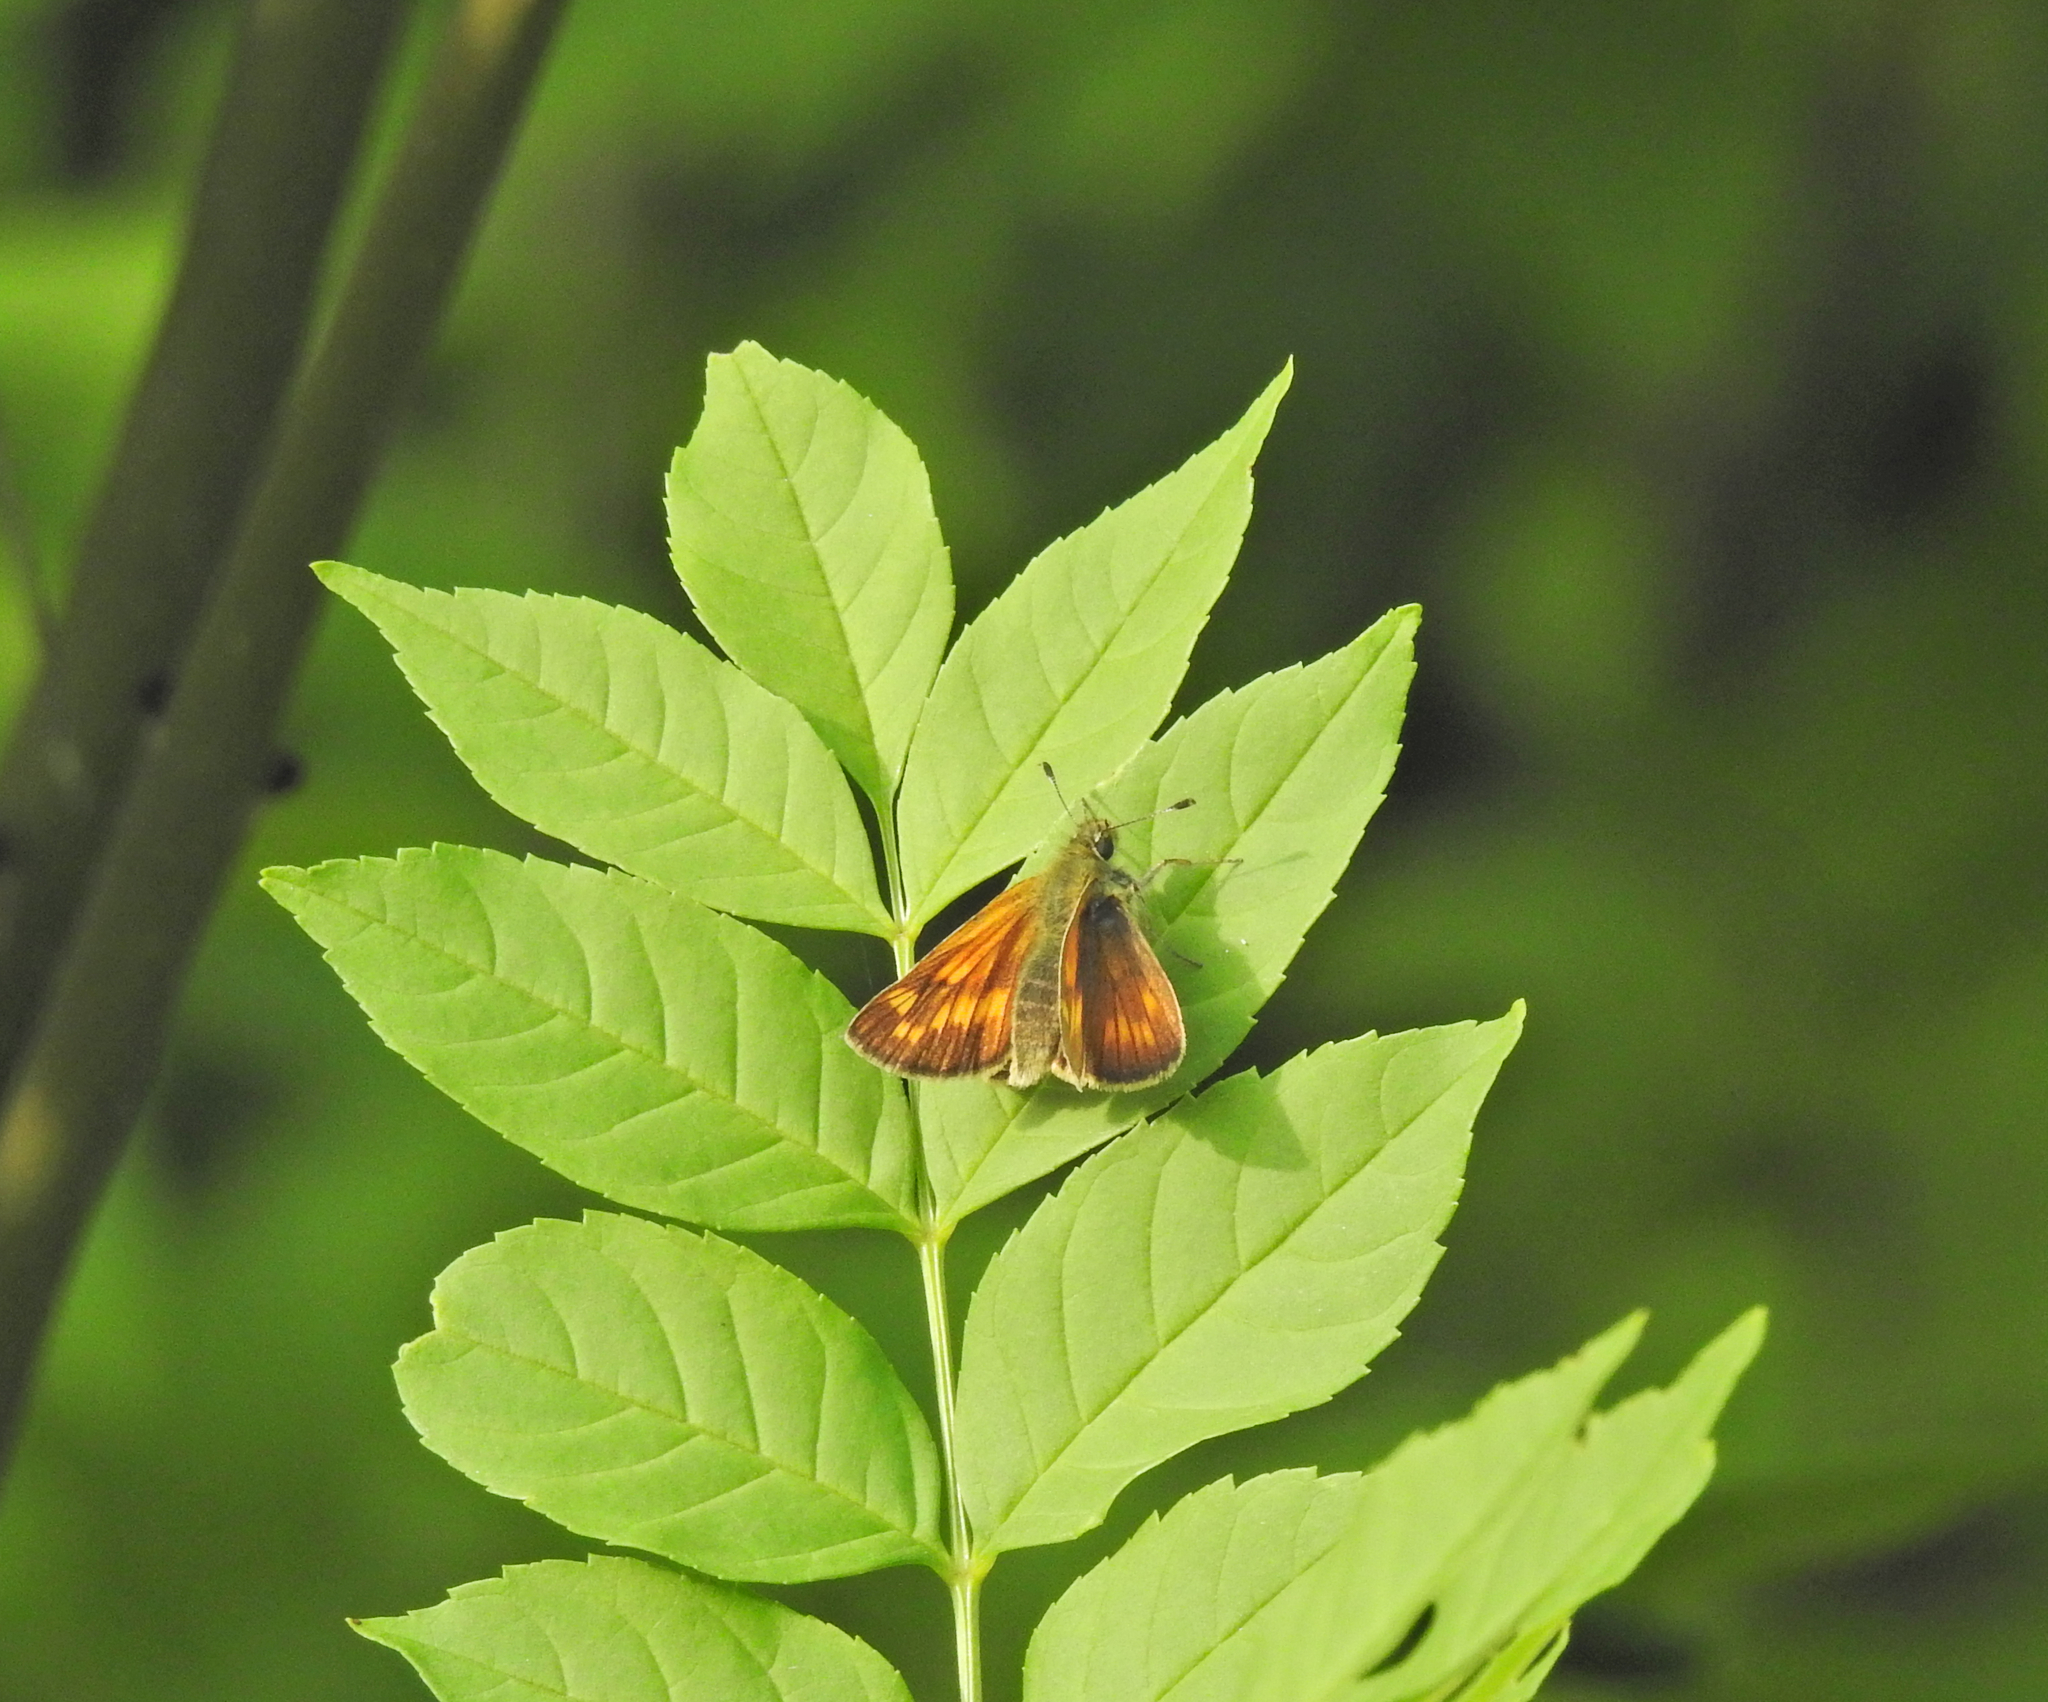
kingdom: Animalia
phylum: Arthropoda
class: Insecta
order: Lepidoptera
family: Hesperiidae
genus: Ochlodes
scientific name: Ochlodes venata
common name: Large skipper
